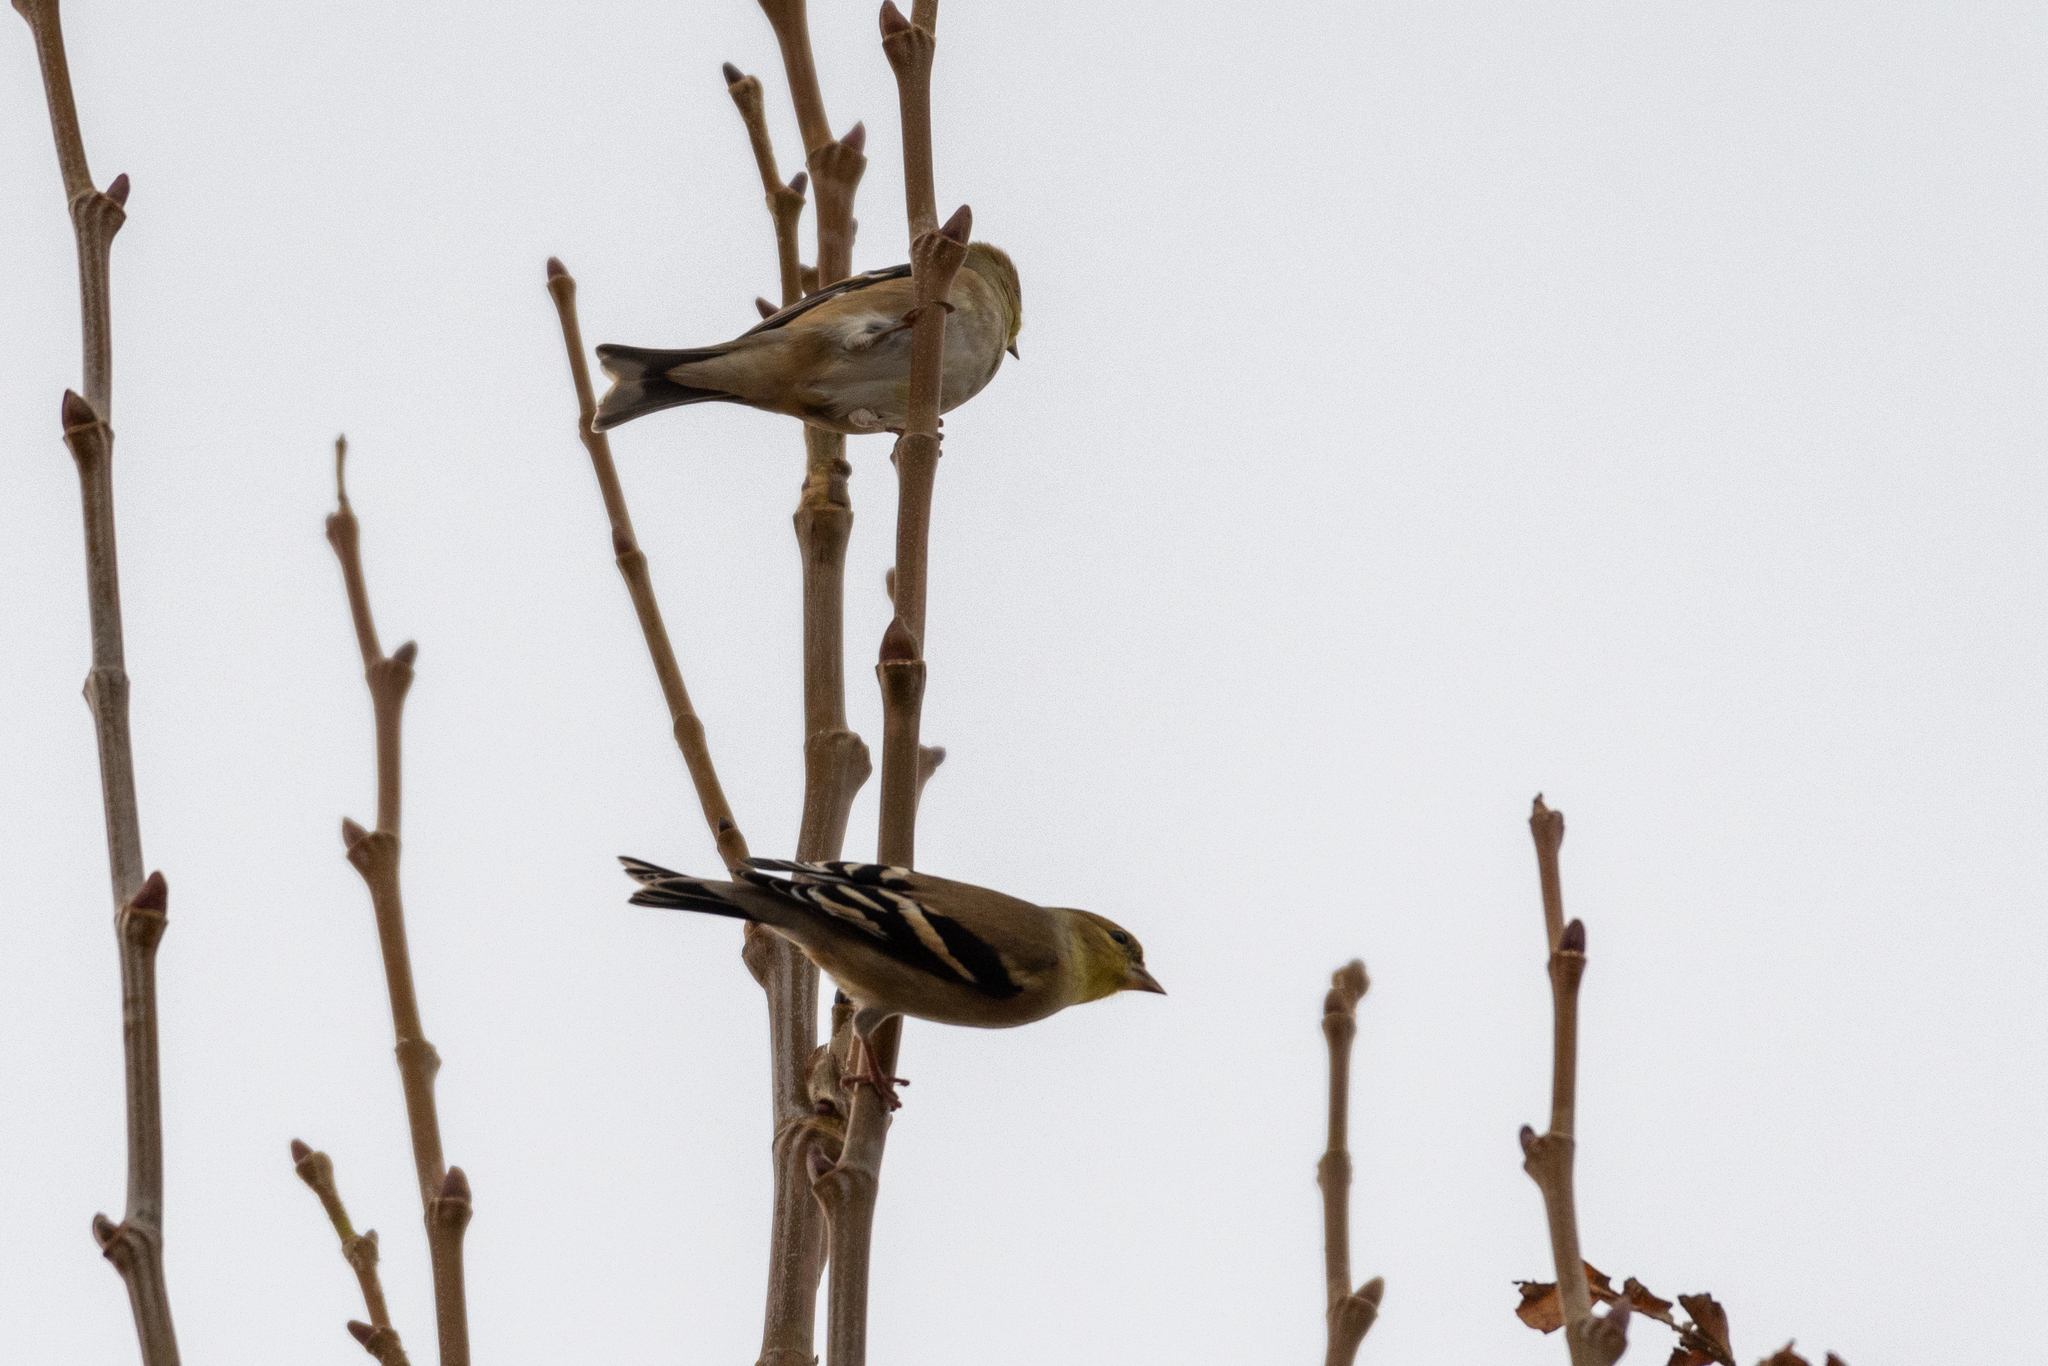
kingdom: Animalia
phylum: Chordata
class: Aves
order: Passeriformes
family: Fringillidae
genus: Spinus
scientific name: Spinus tristis
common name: American goldfinch
